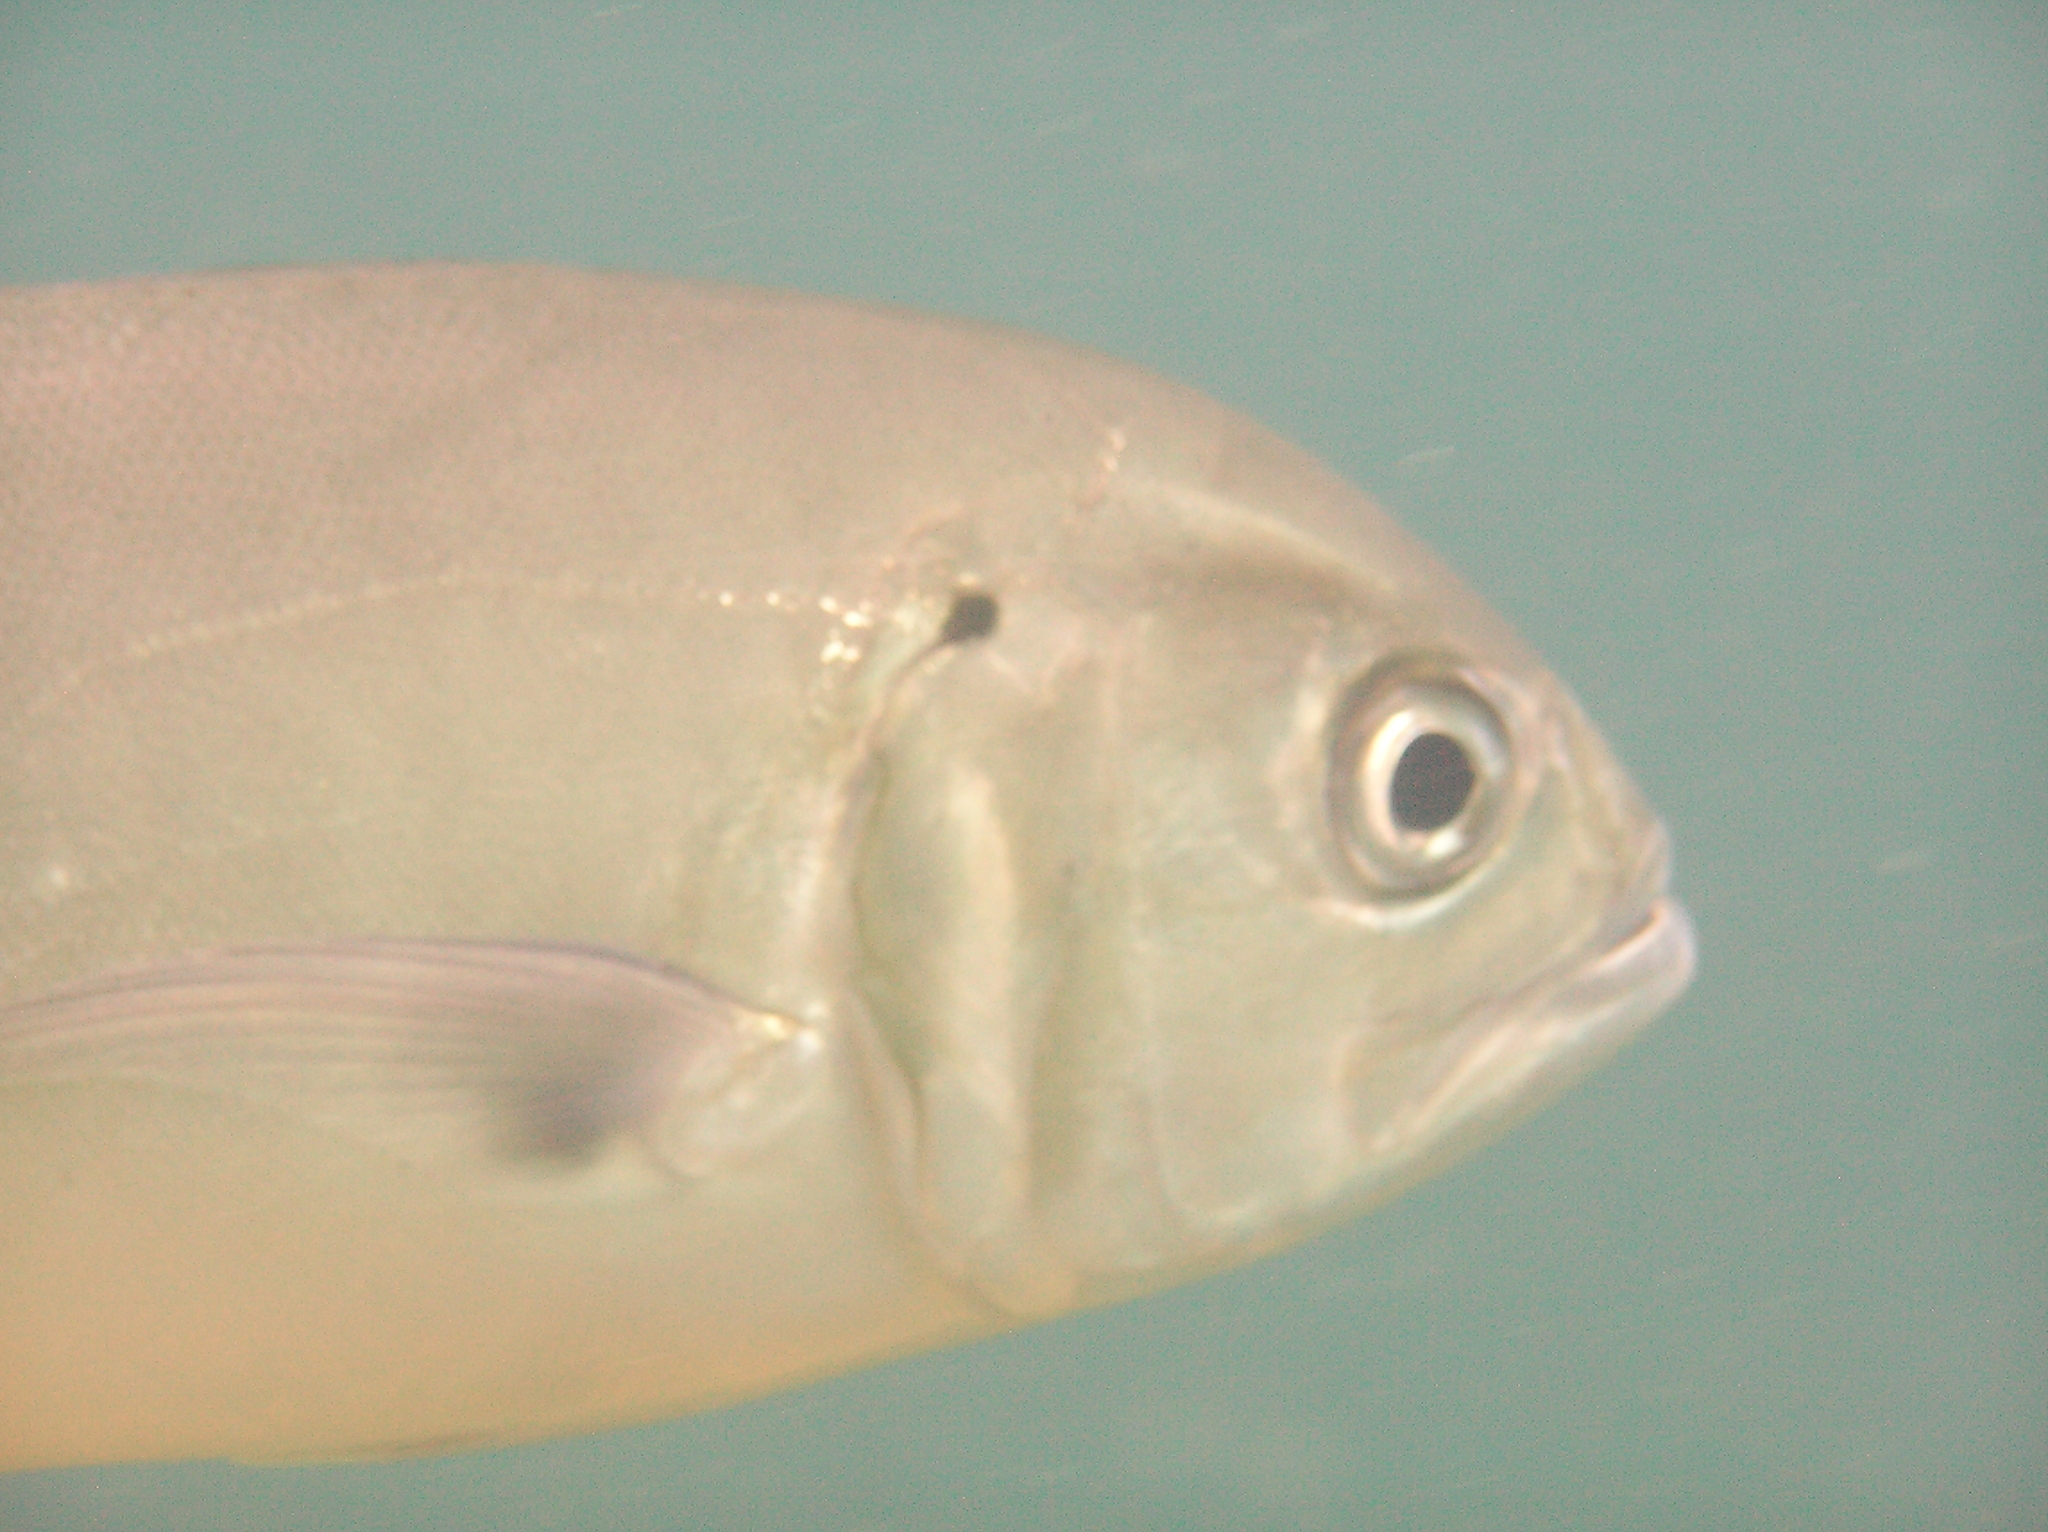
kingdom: Animalia
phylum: Chordata
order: Perciformes
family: Carangidae
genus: Caranx
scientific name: Caranx sexfasciatus
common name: Bigeye trevally
